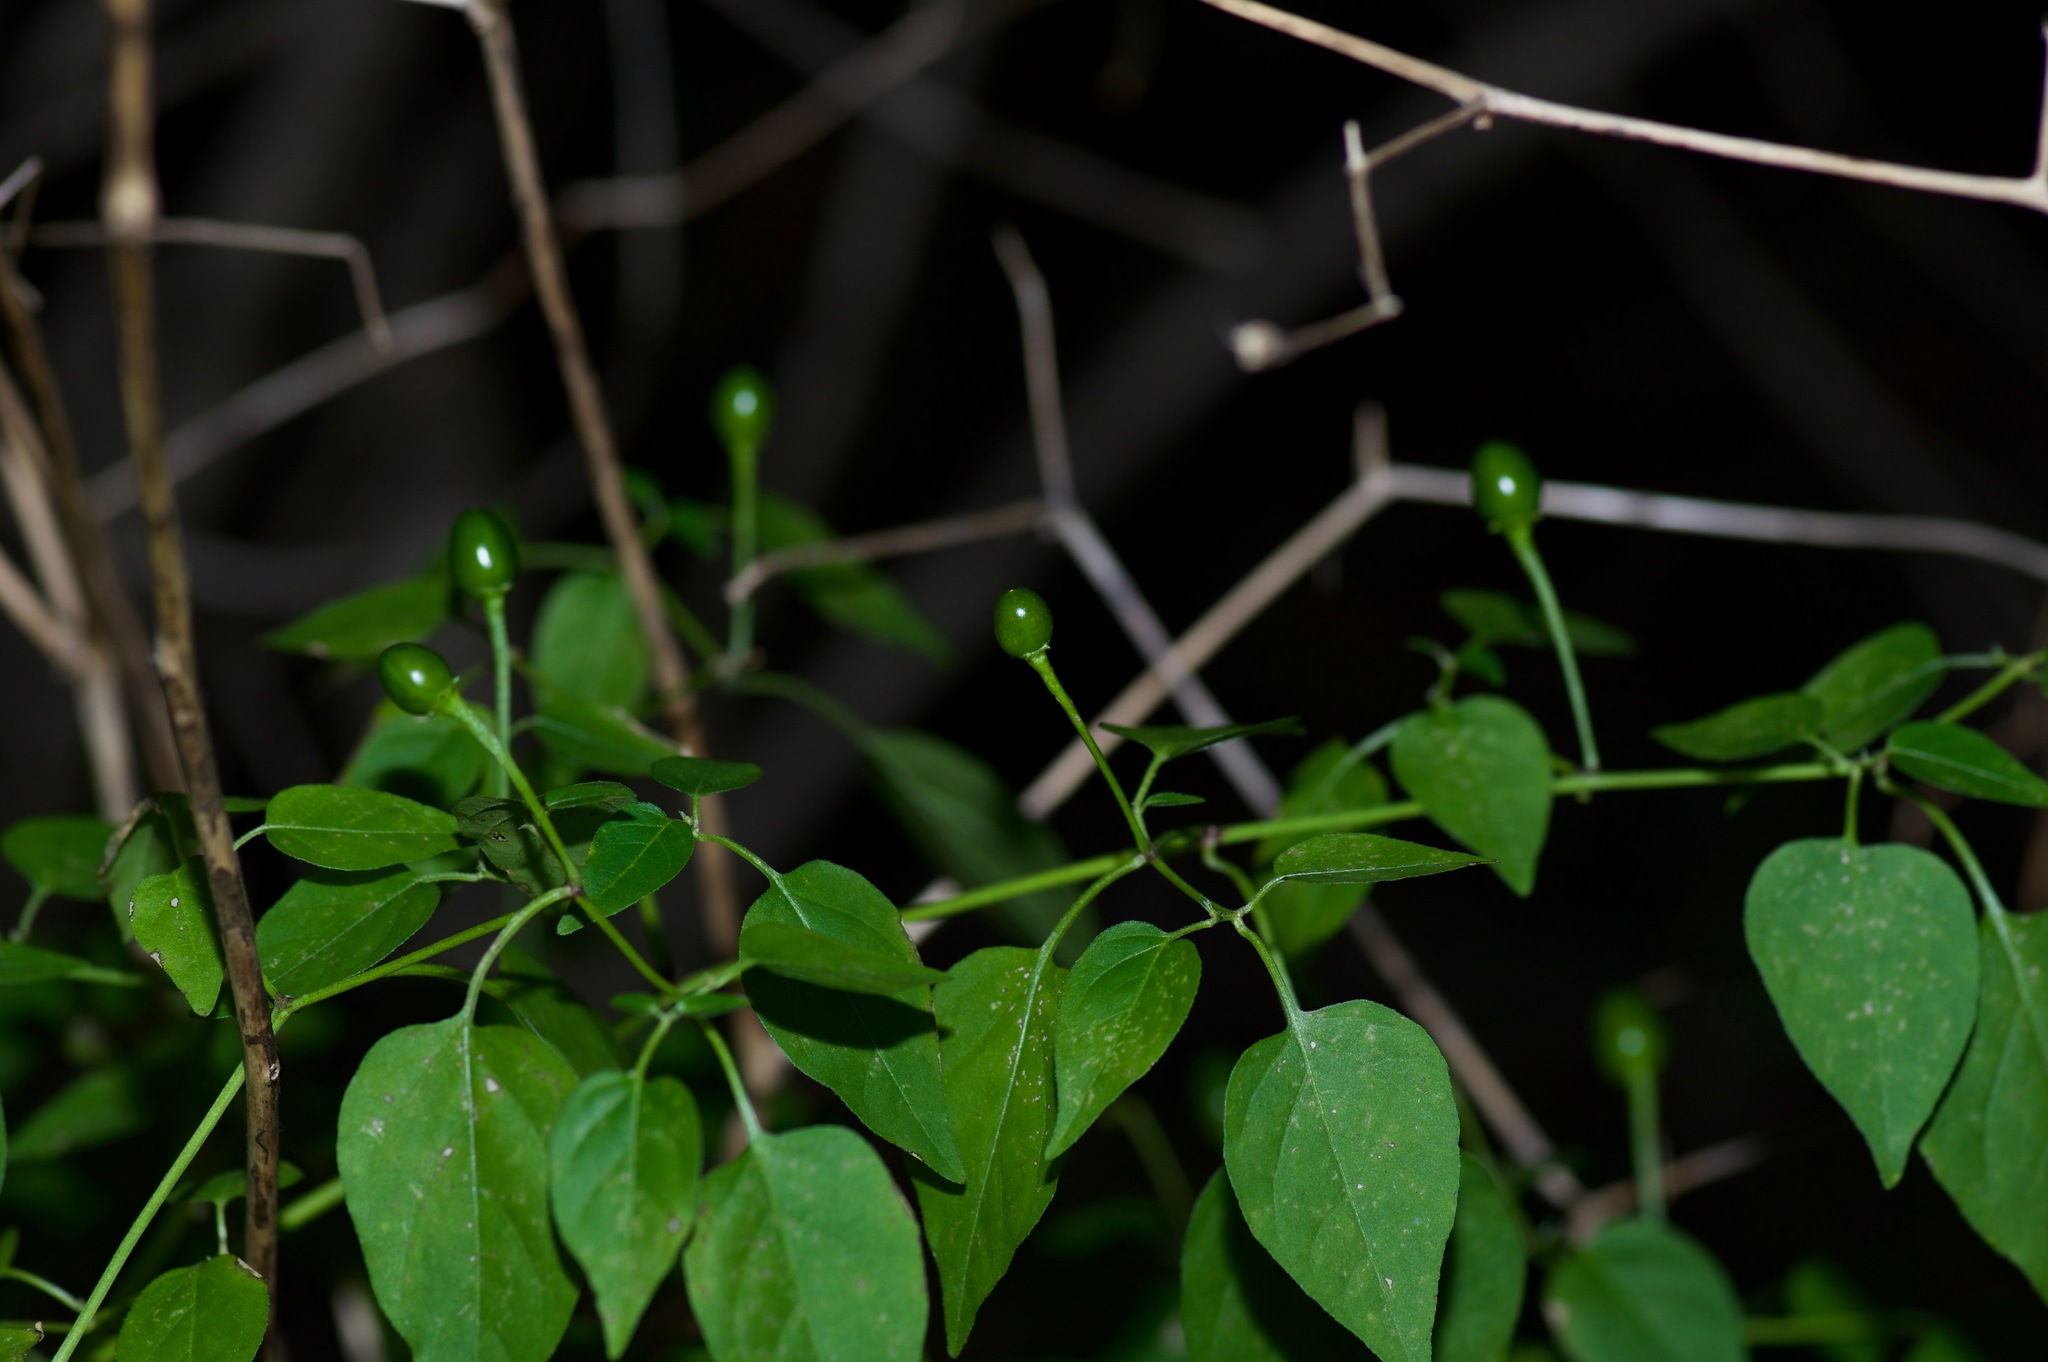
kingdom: Plantae
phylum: Tracheophyta
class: Magnoliopsida
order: Solanales
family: Solanaceae
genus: Capsicum
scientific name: Capsicum annuum
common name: Sweet pepper
